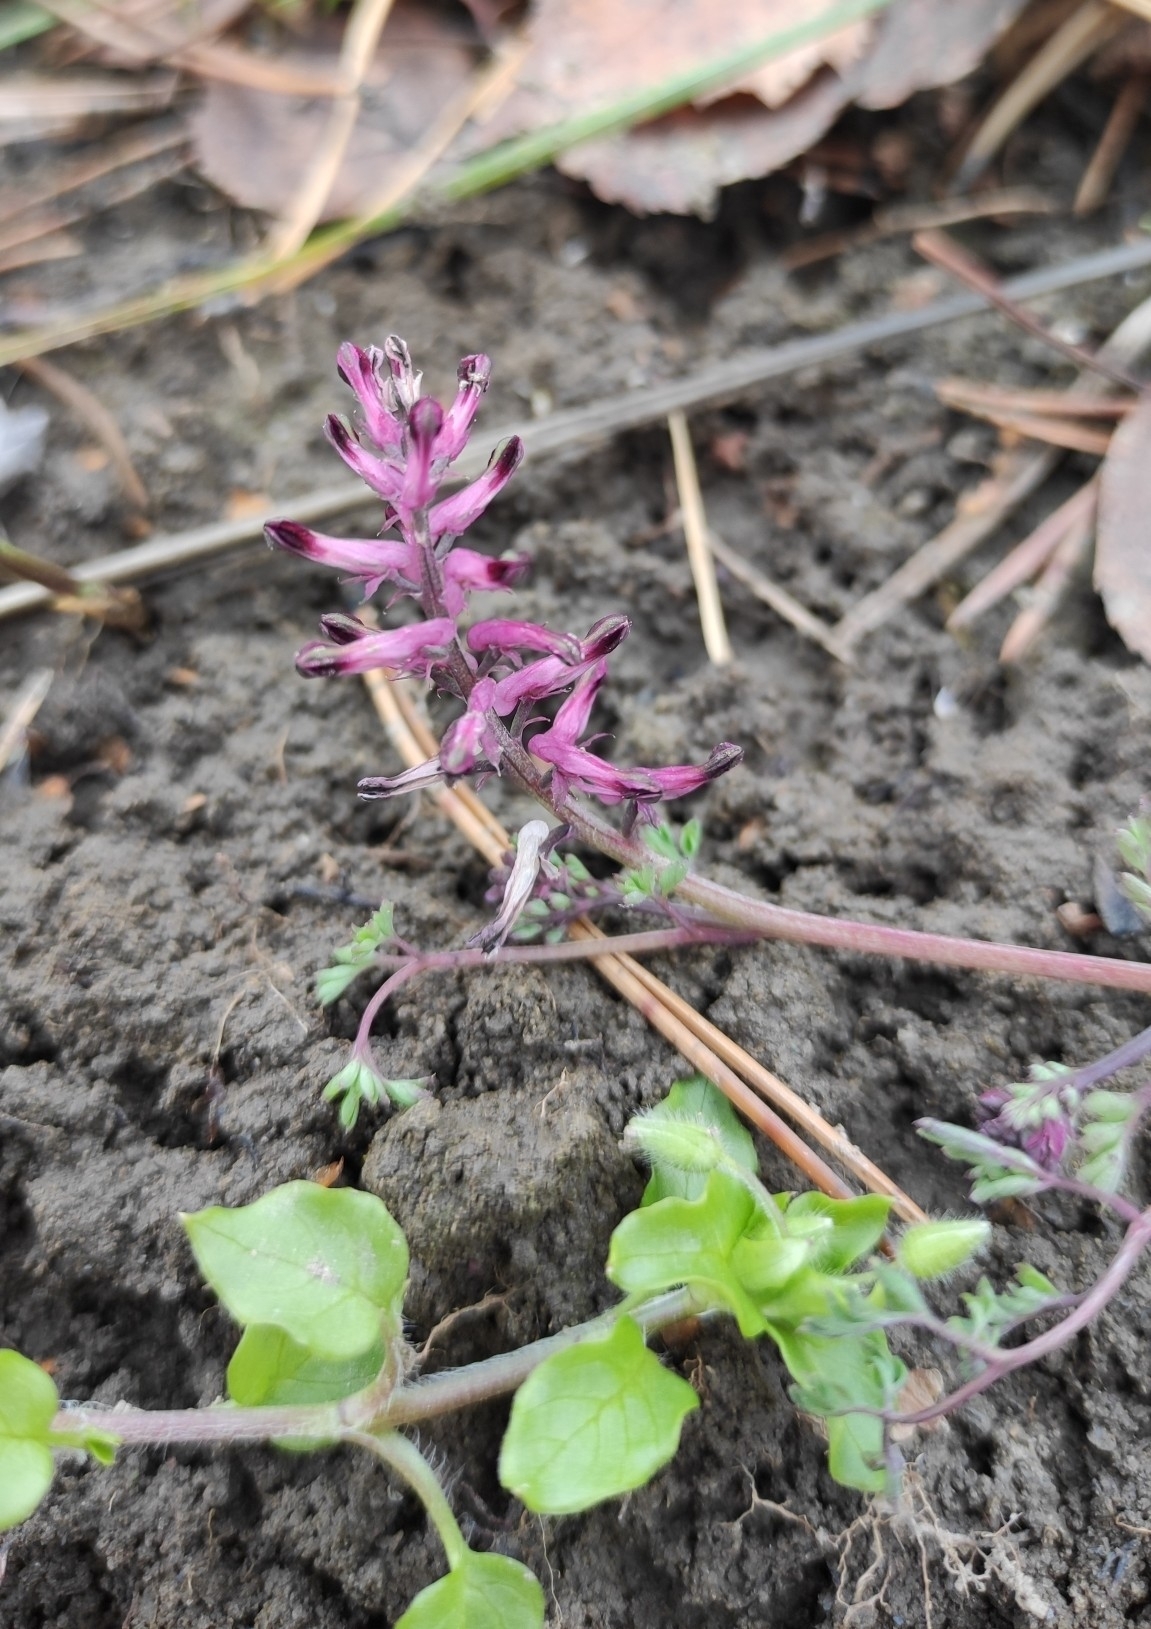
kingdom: Plantae
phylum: Tracheophyta
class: Magnoliopsida
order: Ranunculales
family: Papaveraceae
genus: Fumaria
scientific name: Fumaria officinalis
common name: Common fumitory
